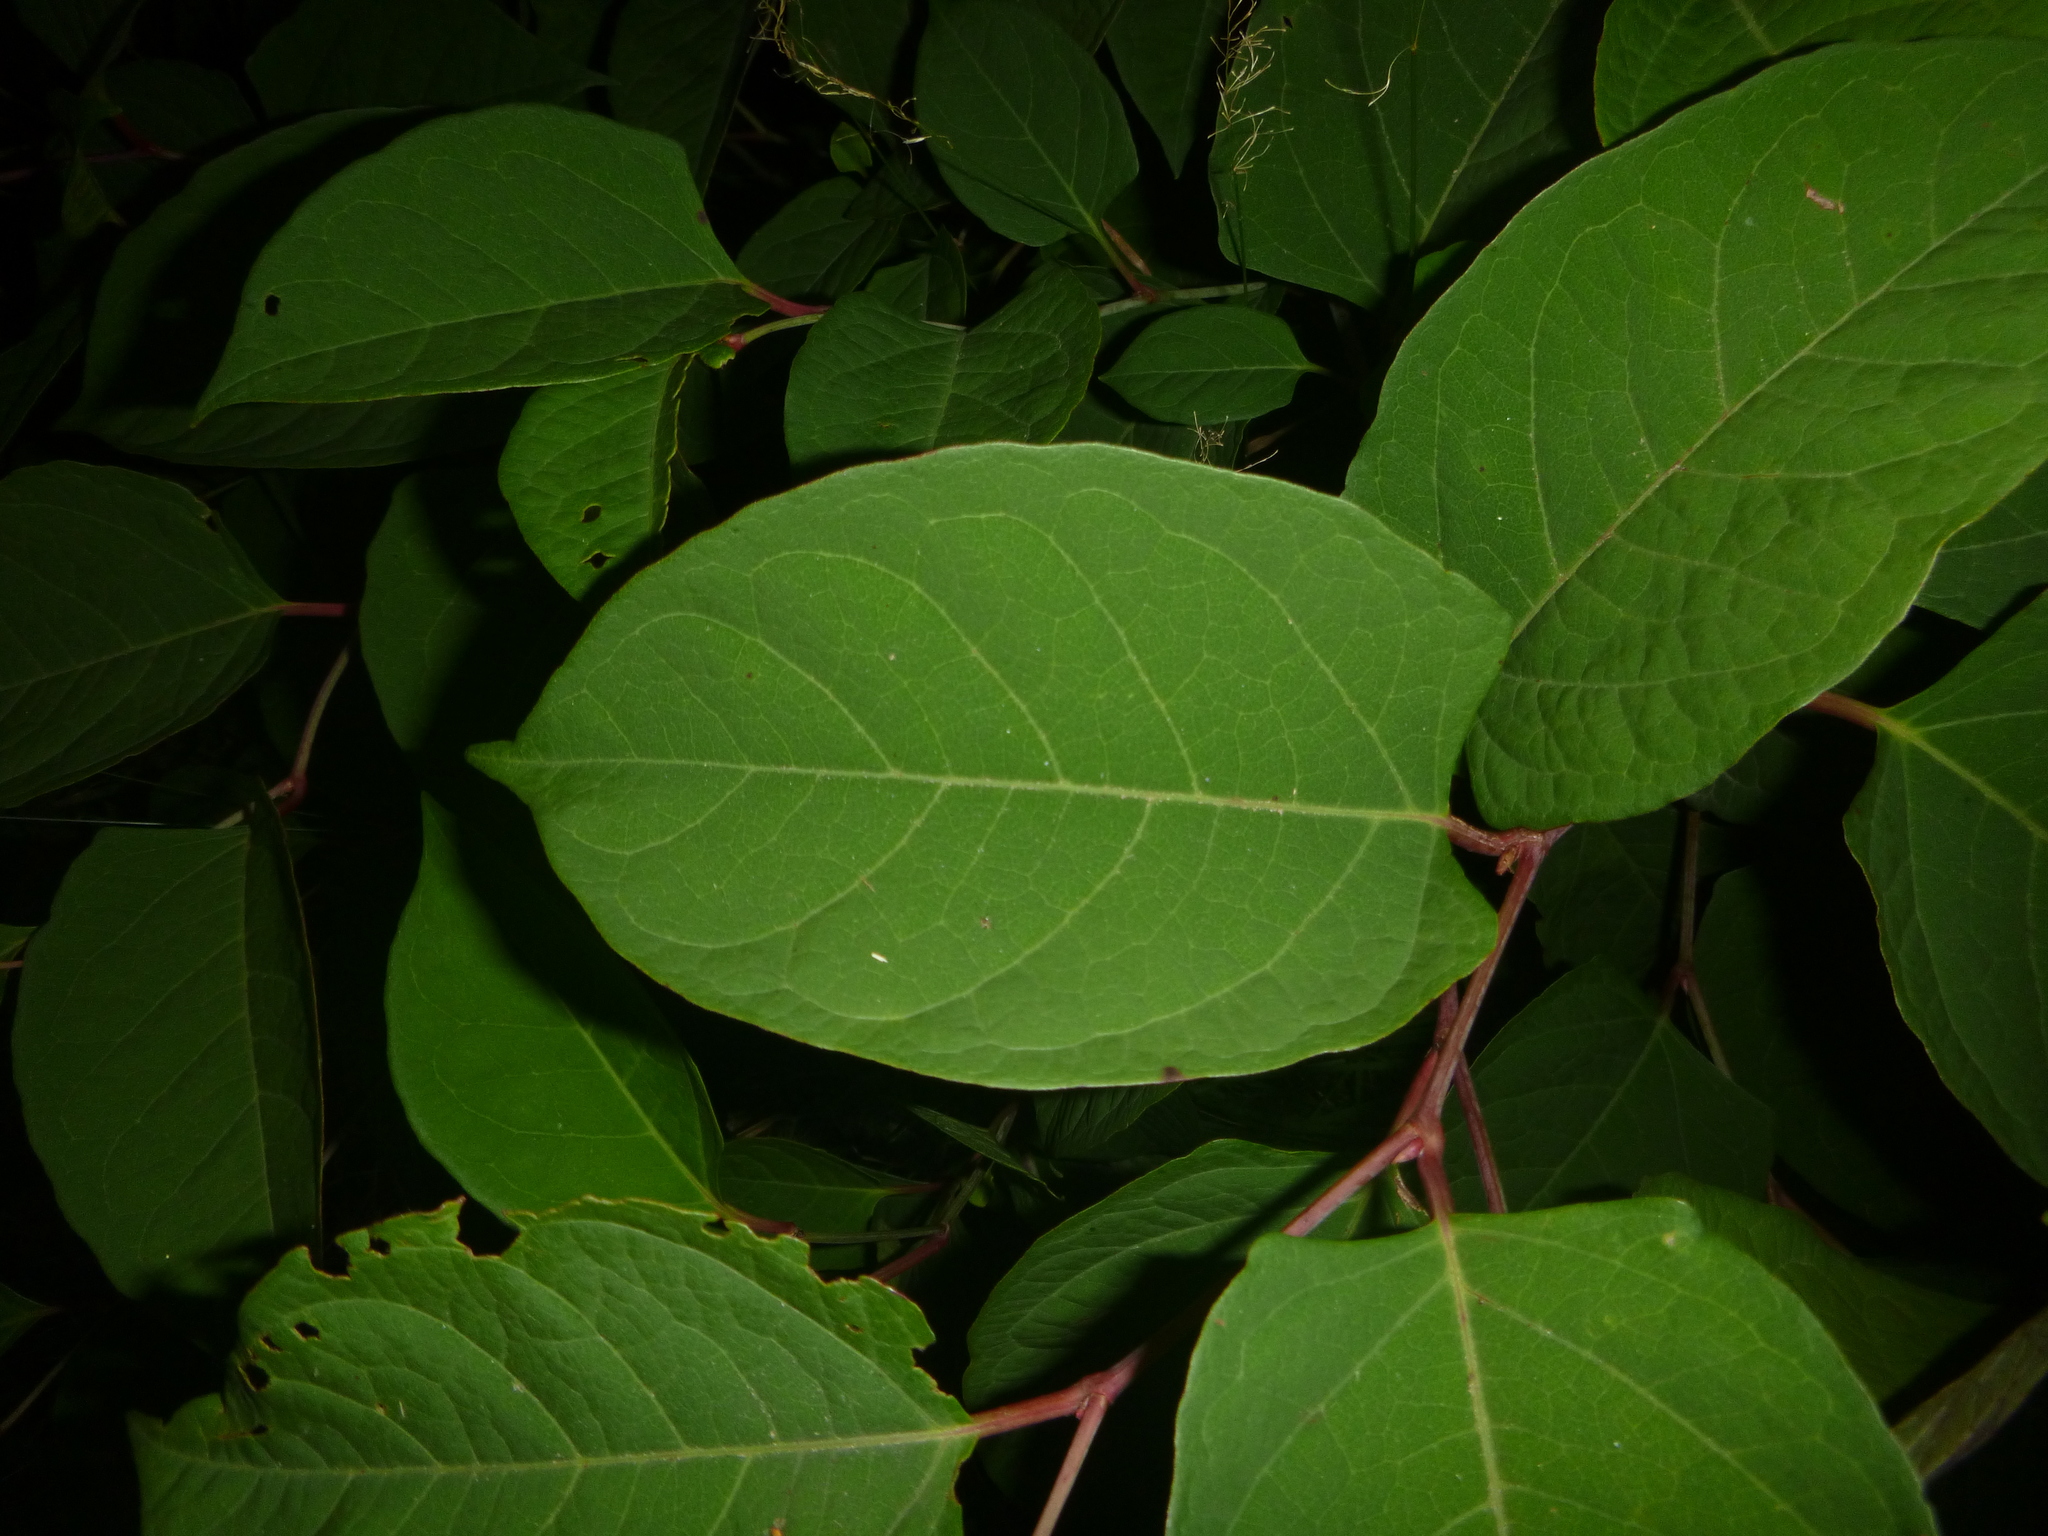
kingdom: Plantae
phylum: Tracheophyta
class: Magnoliopsida
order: Caryophyllales
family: Polygonaceae
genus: Reynoutria
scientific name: Reynoutria japonica
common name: Japanese knotweed
